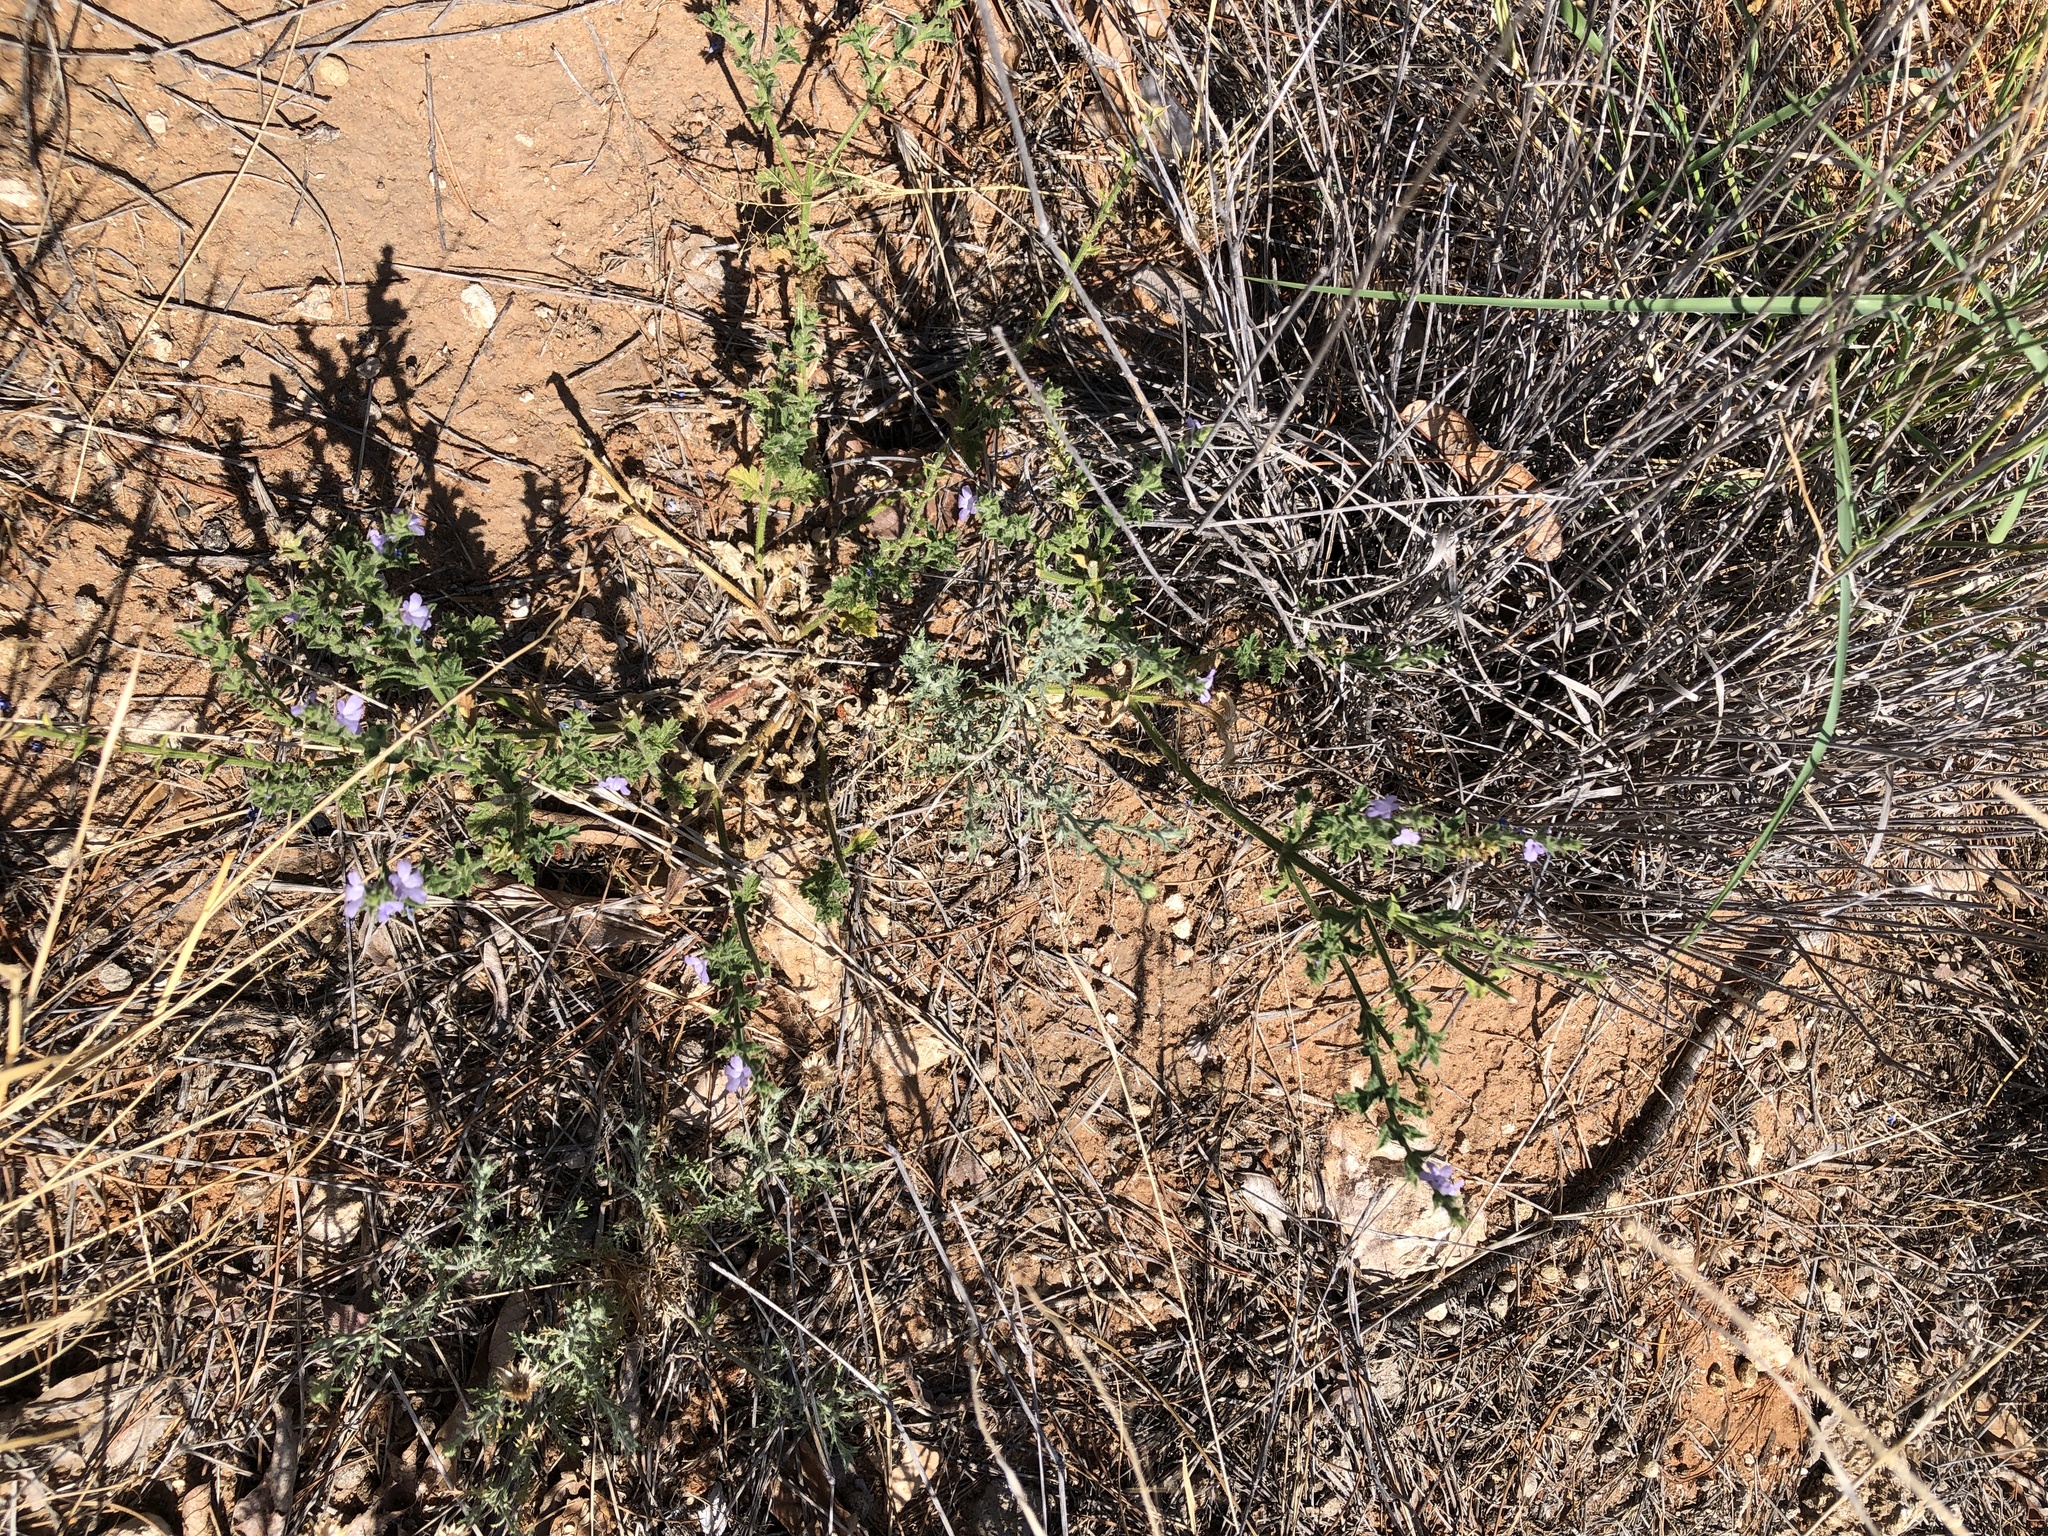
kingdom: Plantae
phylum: Tracheophyta
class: Magnoliopsida
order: Lamiales
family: Verbenaceae
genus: Verbena
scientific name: Verbena canescens
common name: Gray vervain
